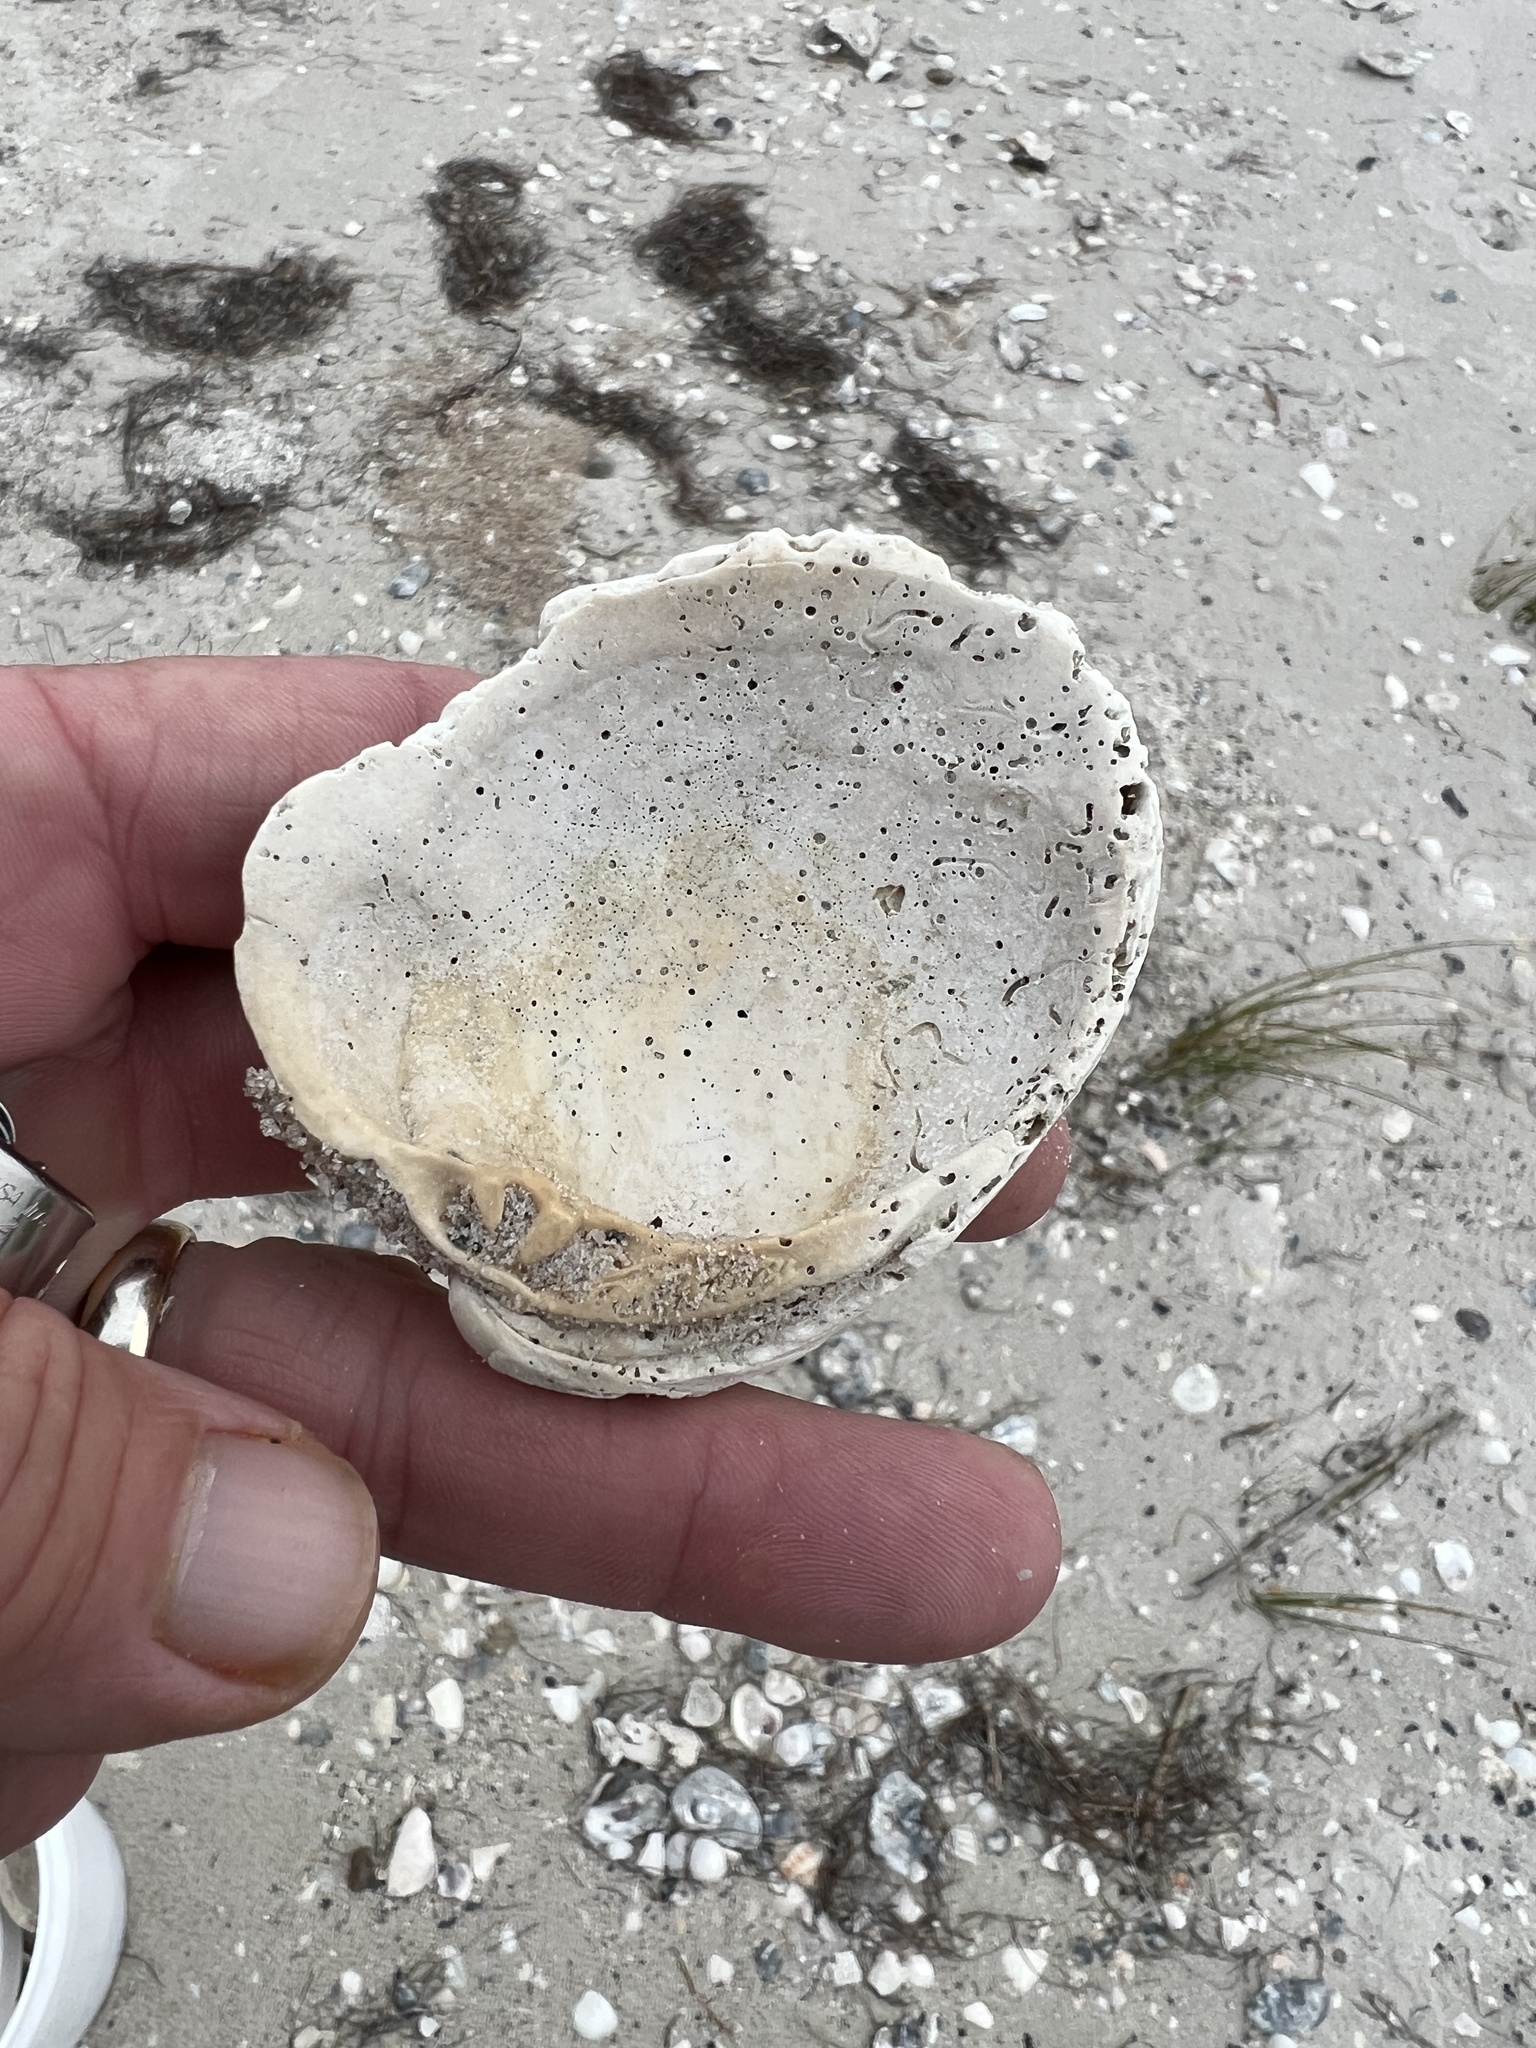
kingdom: Animalia
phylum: Mollusca
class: Bivalvia
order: Venerida
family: Veneridae
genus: Mercenaria
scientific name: Mercenaria campechiensis
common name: Südliche quahog-muschel
